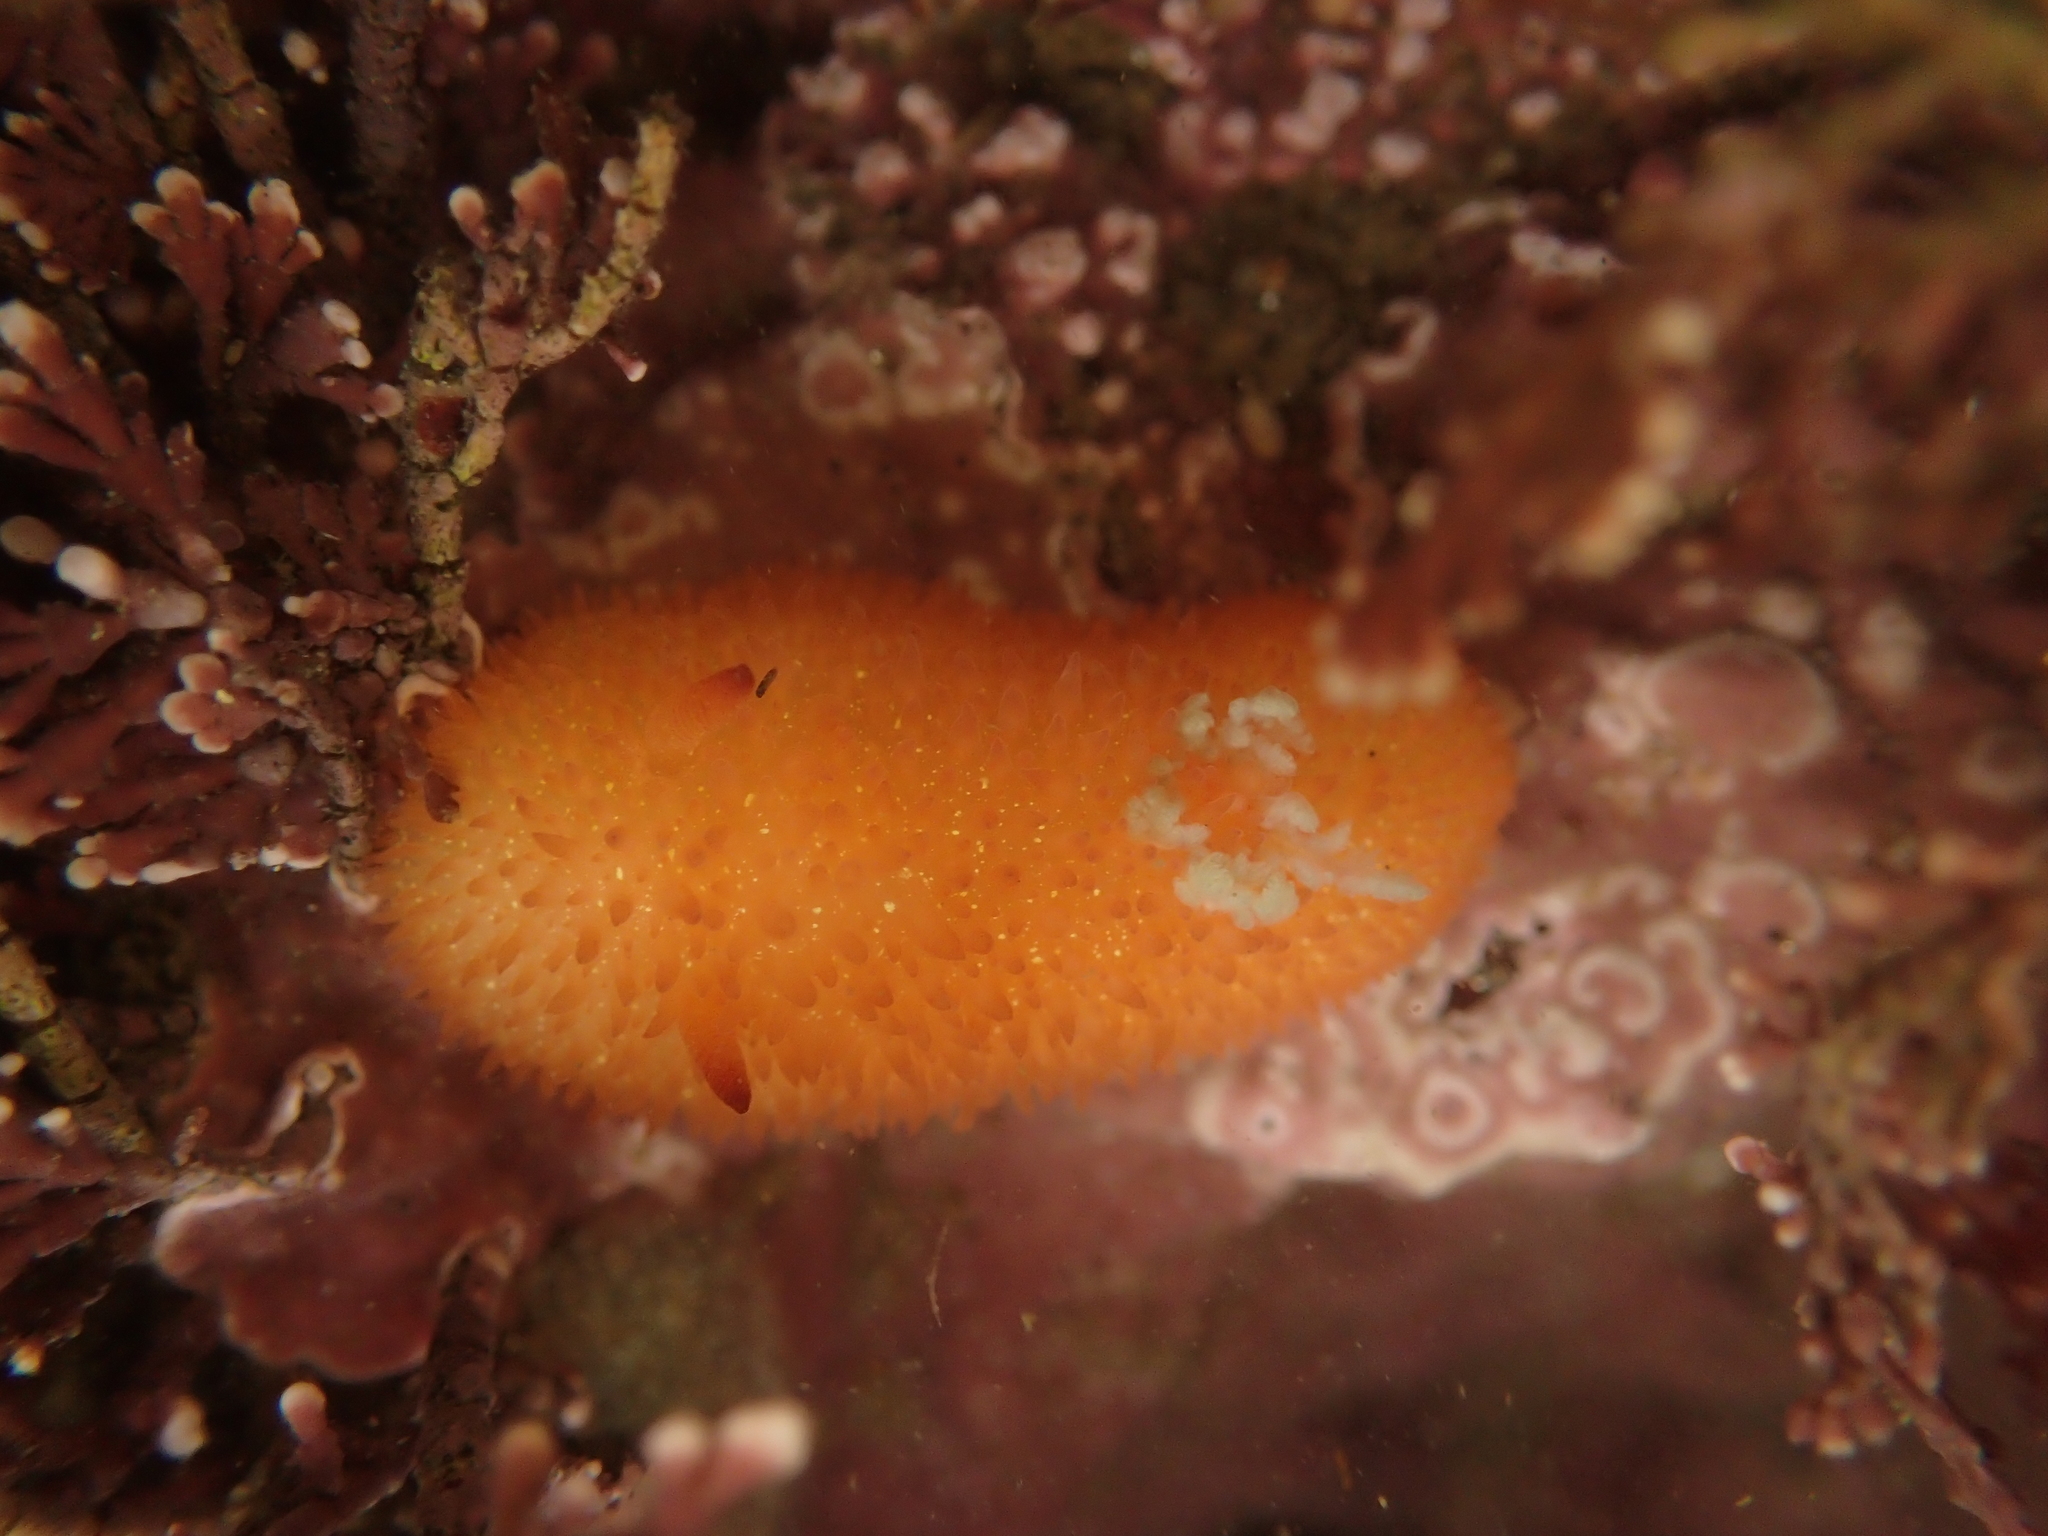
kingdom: Animalia
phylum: Mollusca
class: Gastropoda
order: Nudibranchia
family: Onchidorididae
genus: Acanthodoris
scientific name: Acanthodoris lutea
